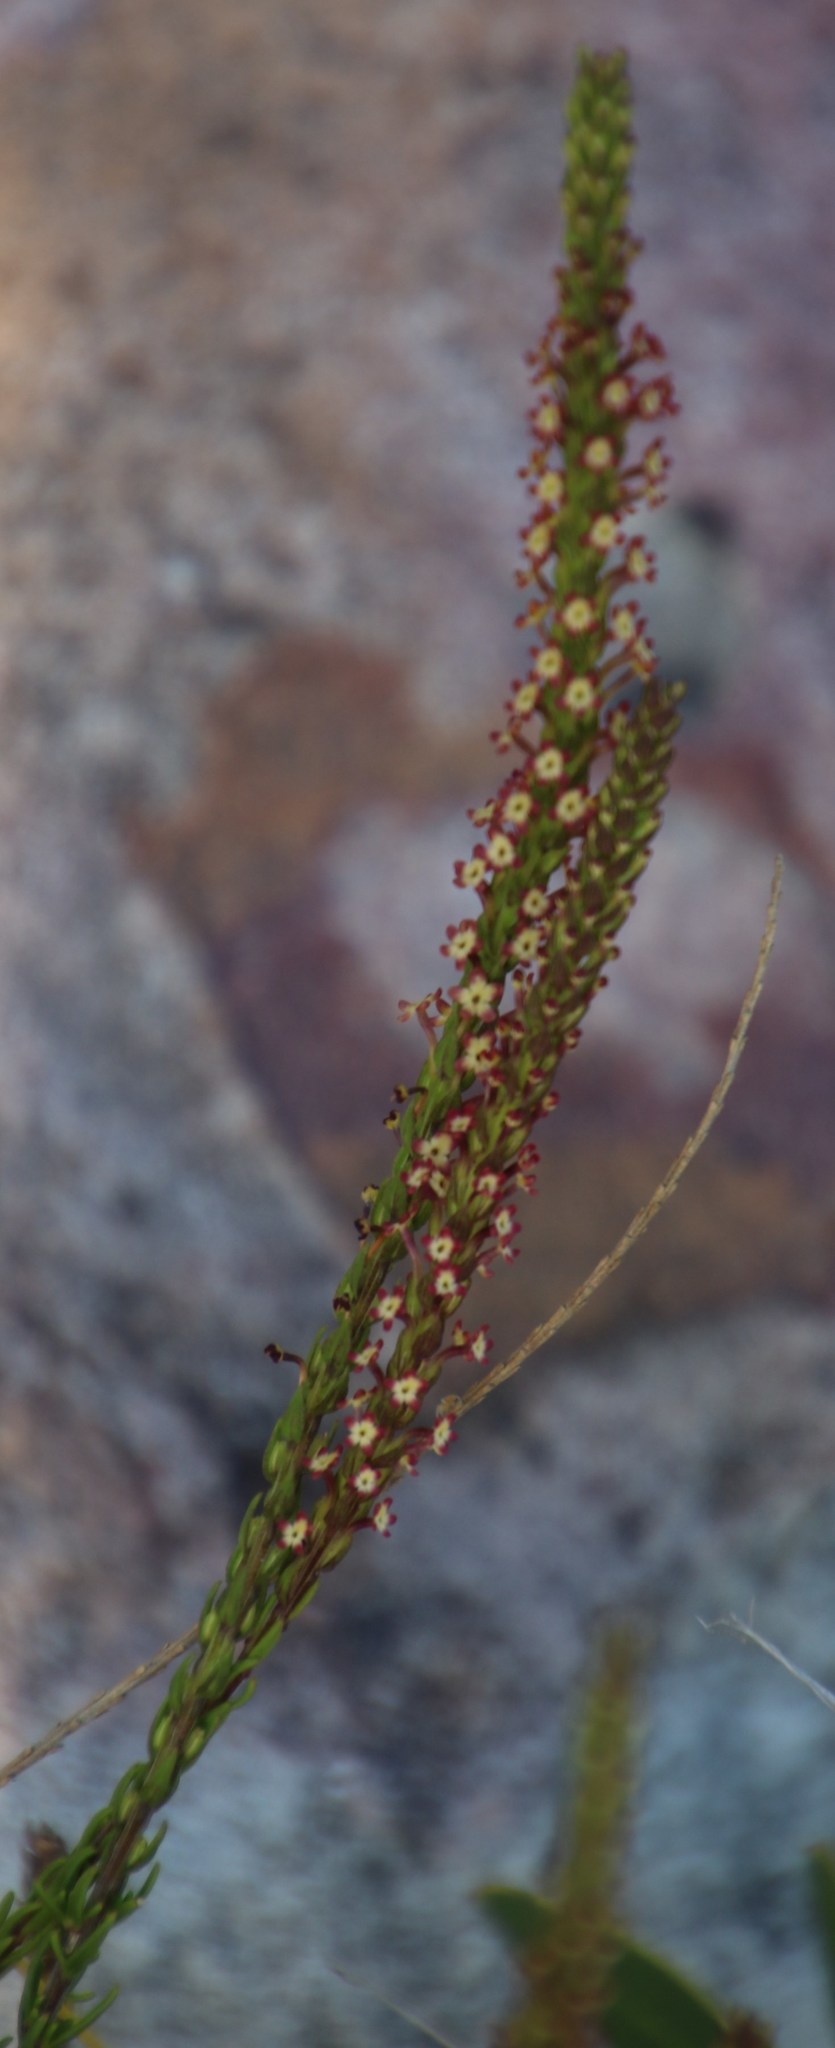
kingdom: Plantae
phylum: Tracheophyta
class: Magnoliopsida
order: Lamiales
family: Scrophulariaceae
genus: Microdon
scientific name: Microdon dubius
